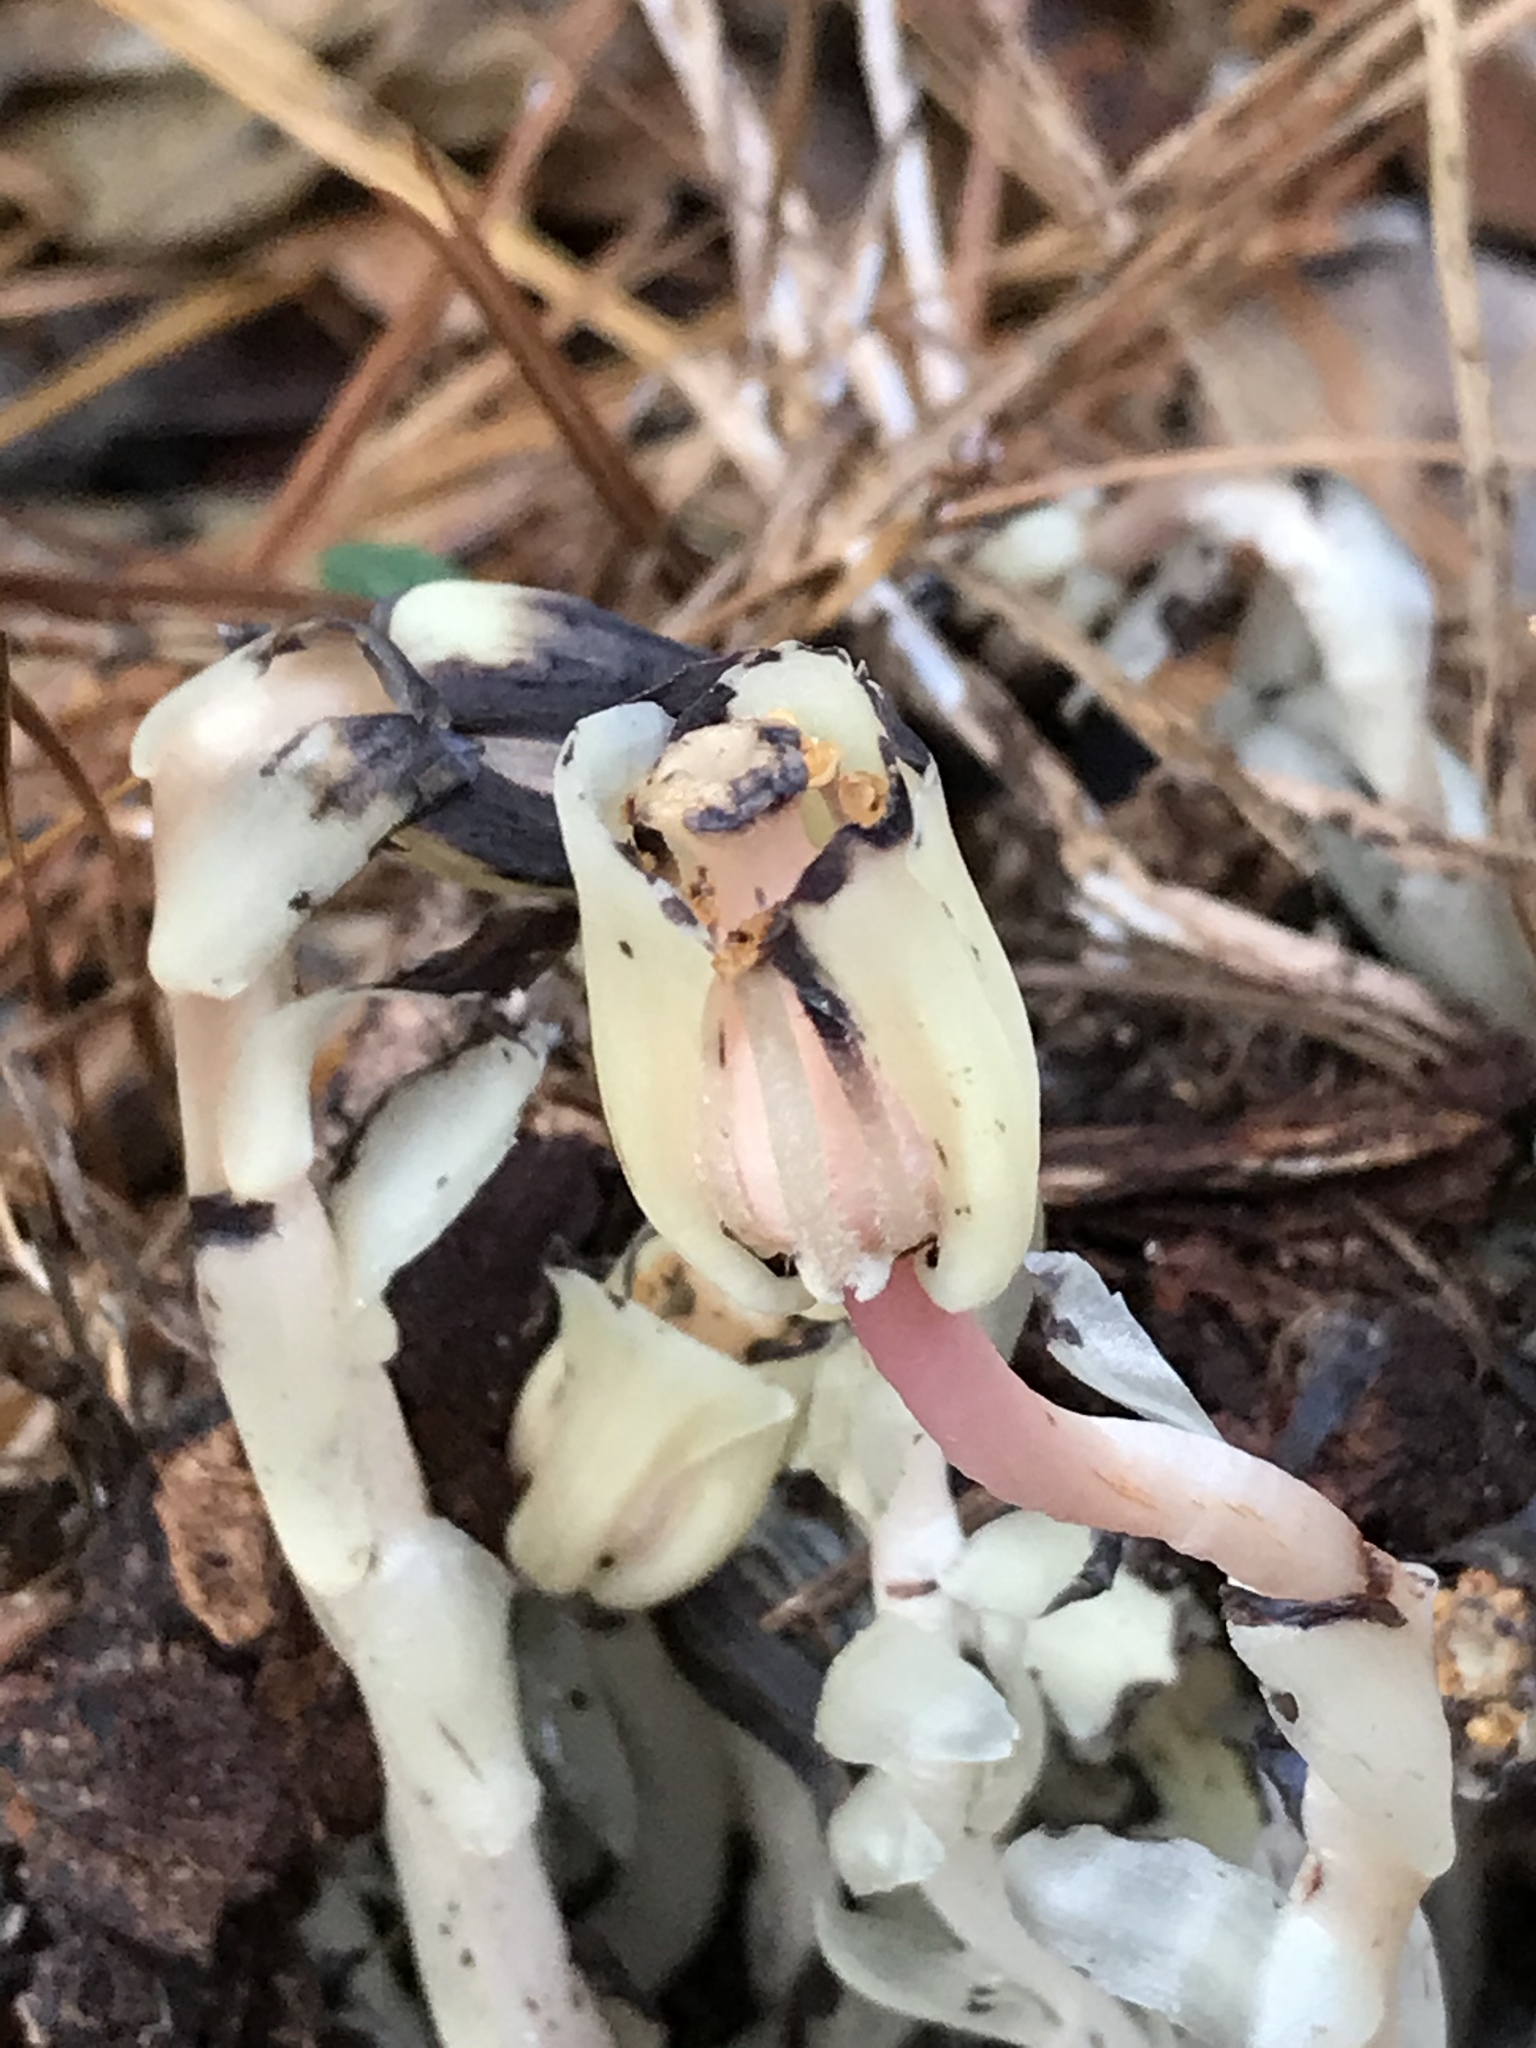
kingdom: Plantae
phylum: Tracheophyta
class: Magnoliopsida
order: Ericales
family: Ericaceae
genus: Monotropa
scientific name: Monotropa uniflora
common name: Convulsion root
